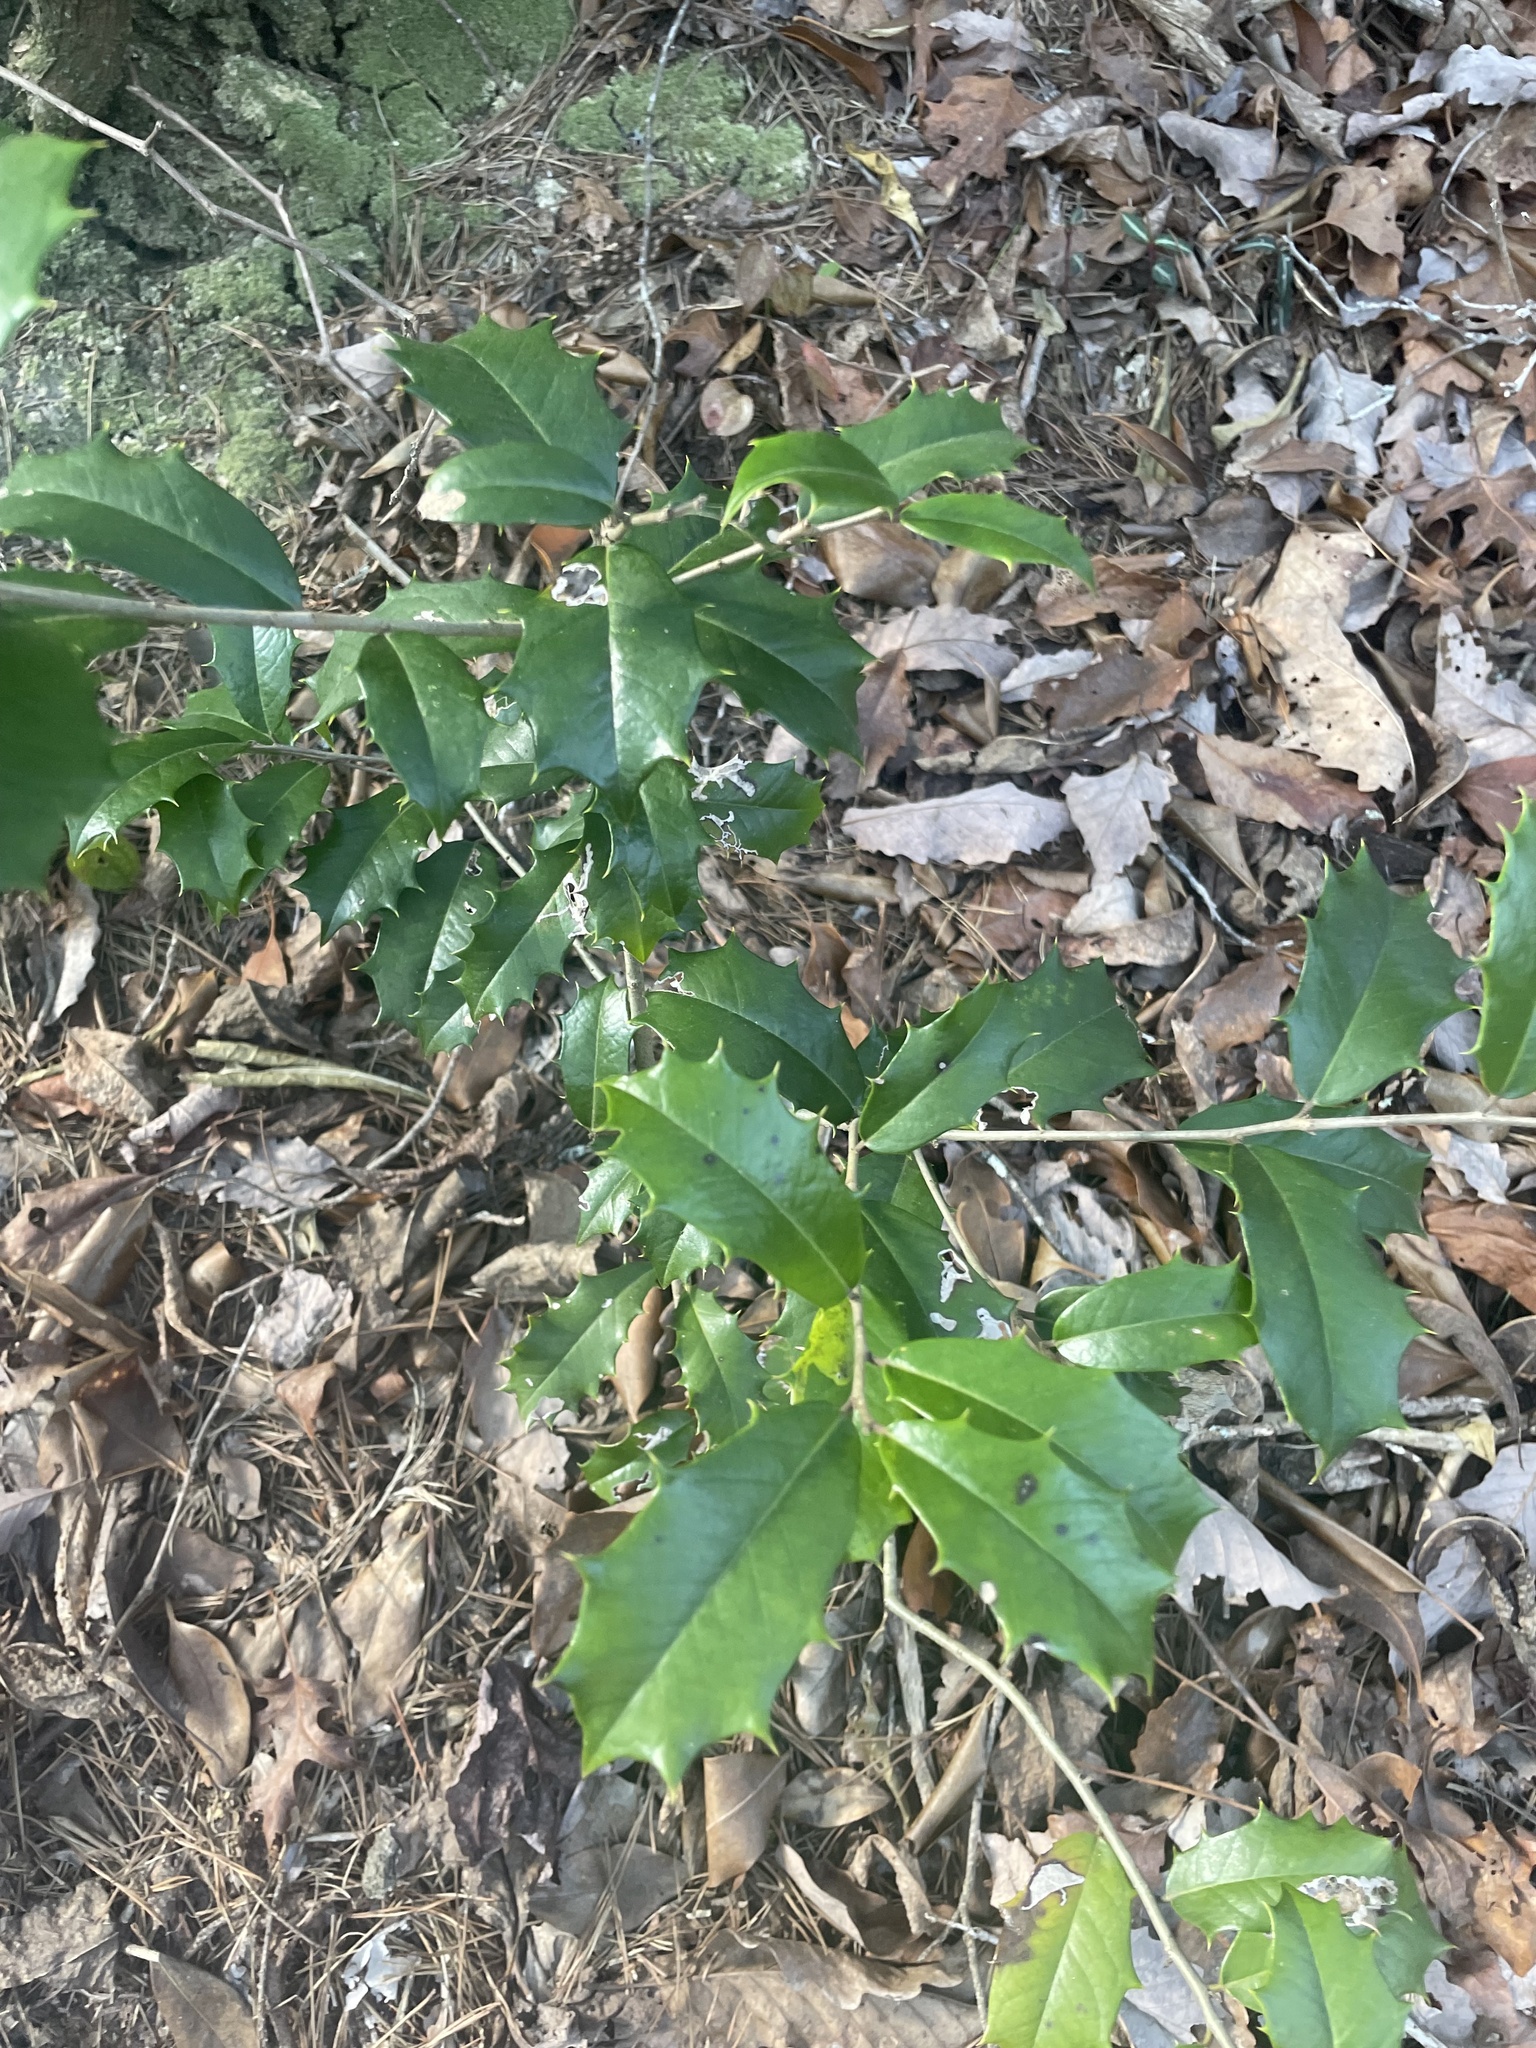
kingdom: Plantae
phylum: Tracheophyta
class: Magnoliopsida
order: Aquifoliales
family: Aquifoliaceae
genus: Ilex
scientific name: Ilex opaca
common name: American holly
